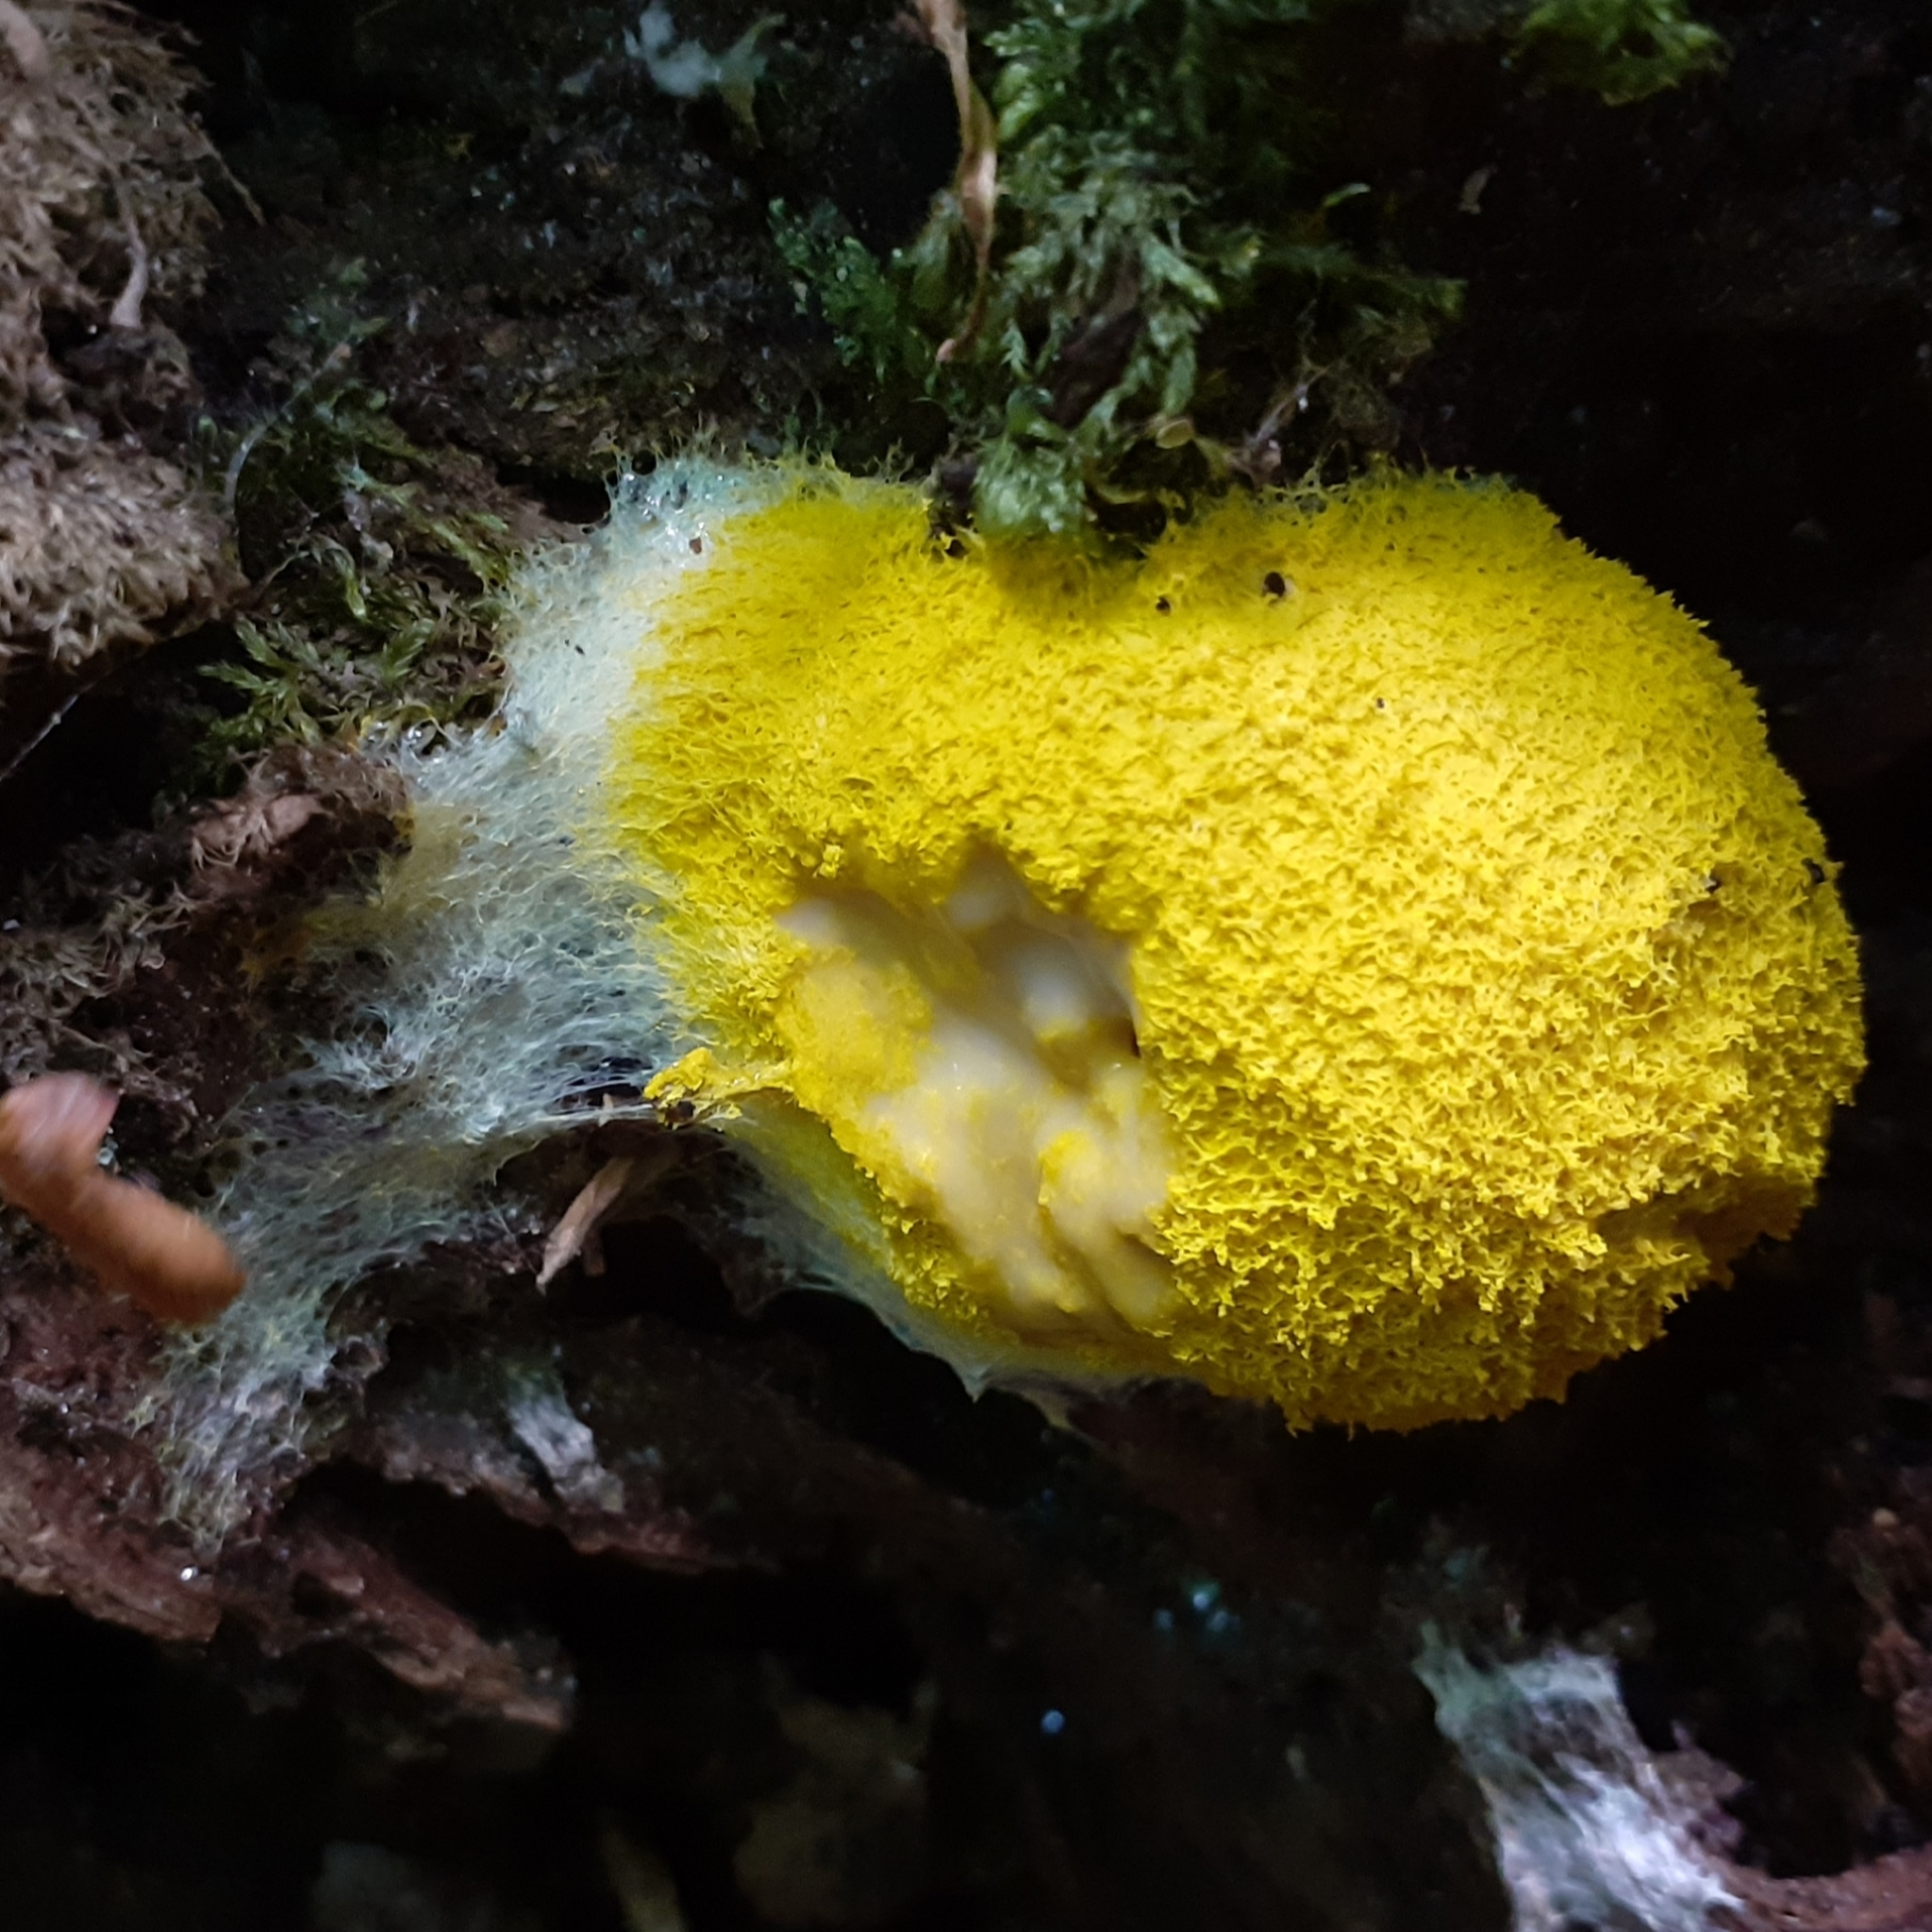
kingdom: Protozoa
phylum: Mycetozoa
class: Myxomycetes
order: Physarales
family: Physaraceae
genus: Fuligo
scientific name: Fuligo septica
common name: Dog vomit slime mold
